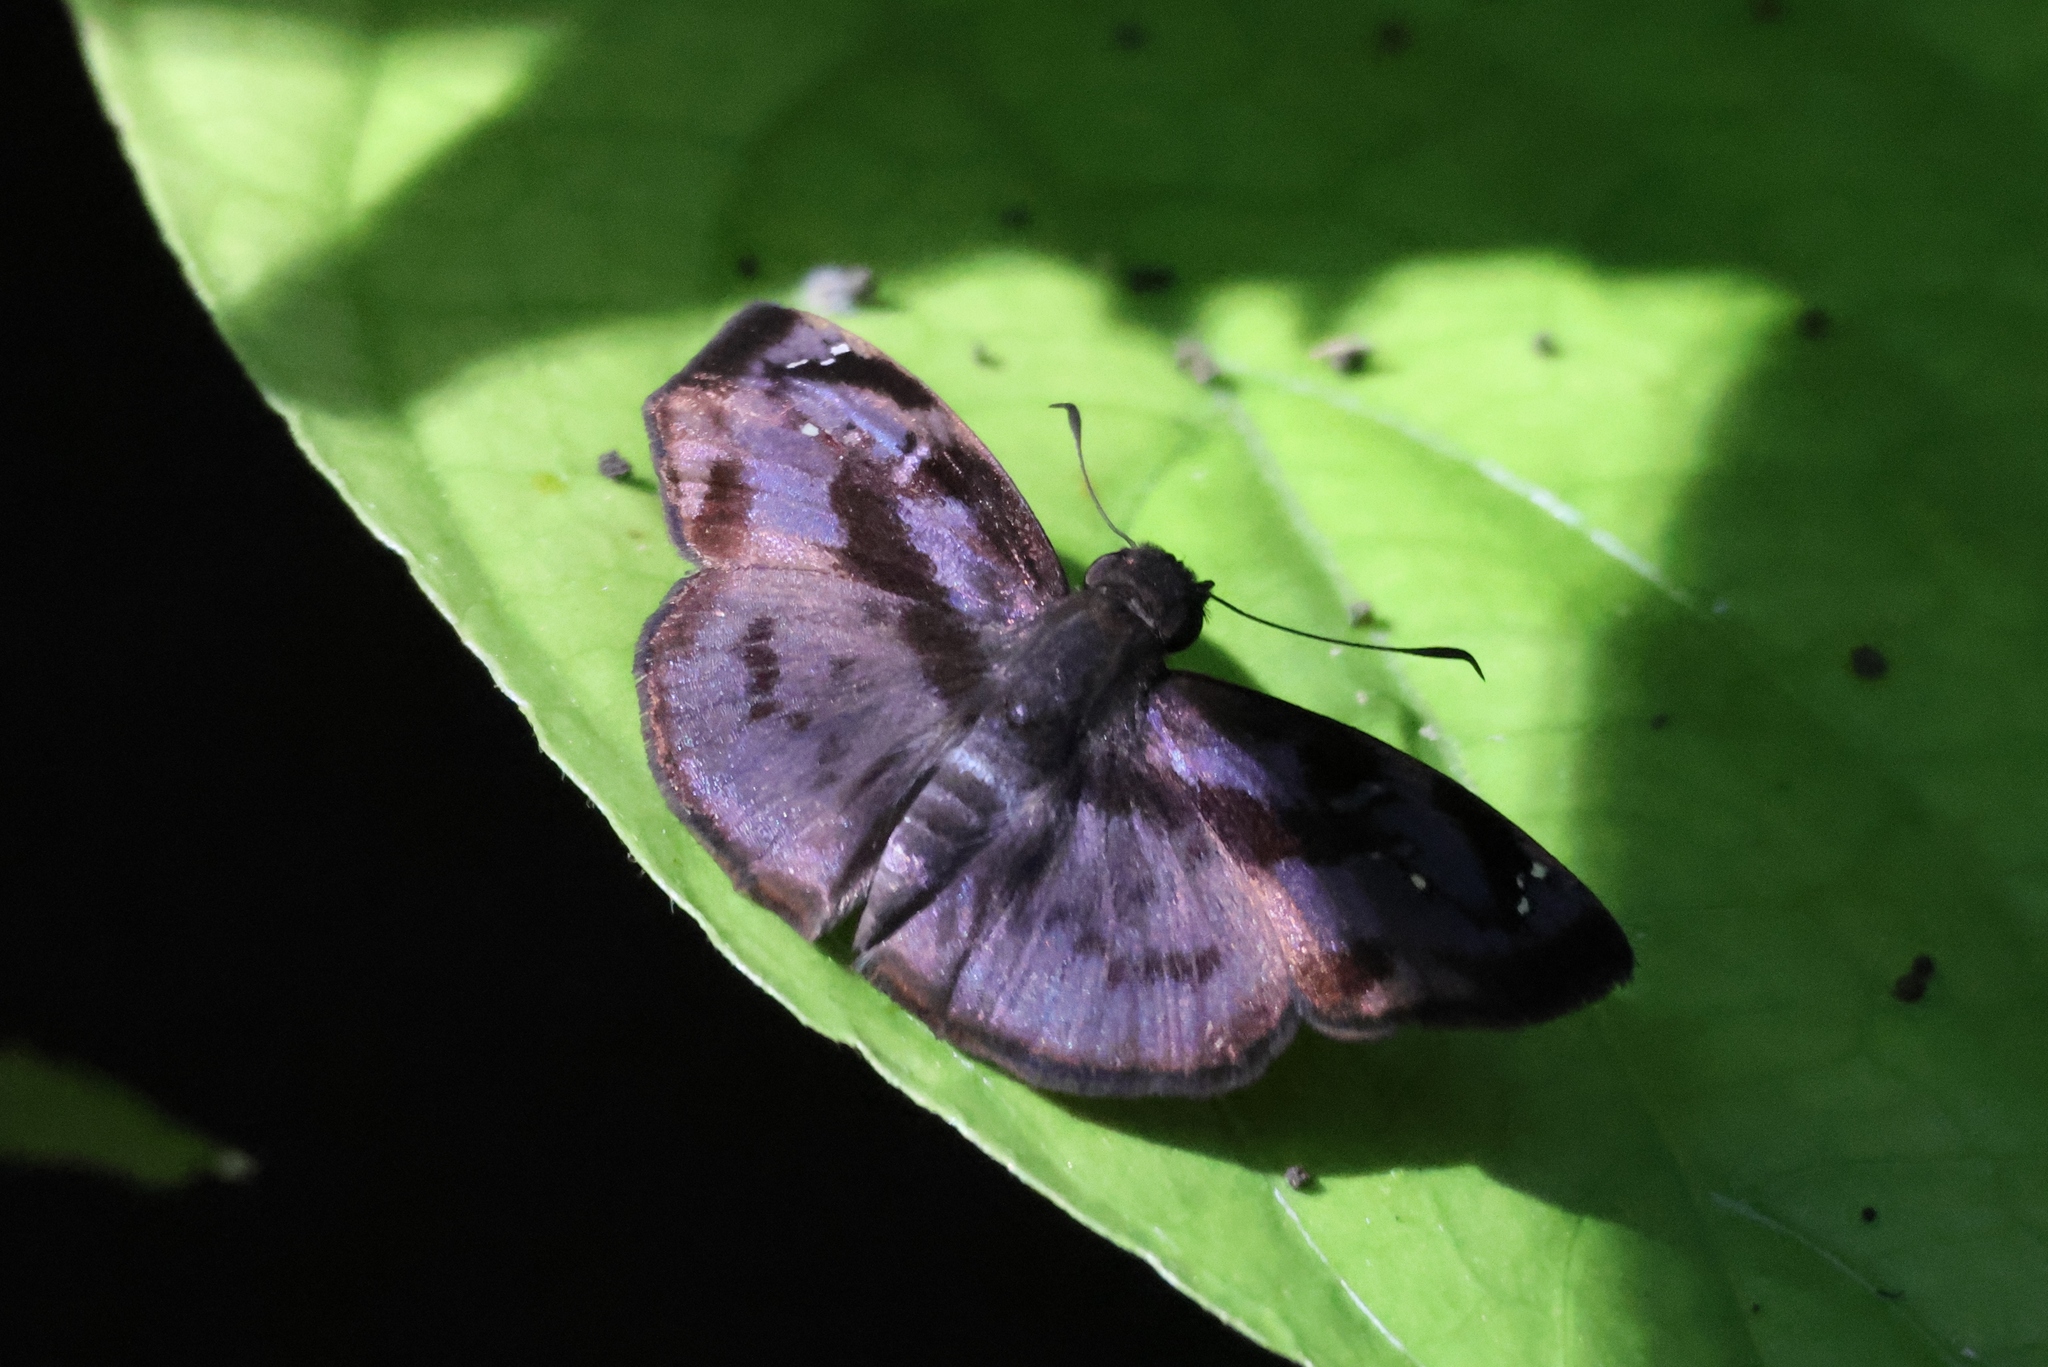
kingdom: Animalia
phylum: Arthropoda
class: Insecta
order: Lepidoptera
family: Hesperiidae
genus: Zera
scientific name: Zera hyacinthinus
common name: Bruised skipper
